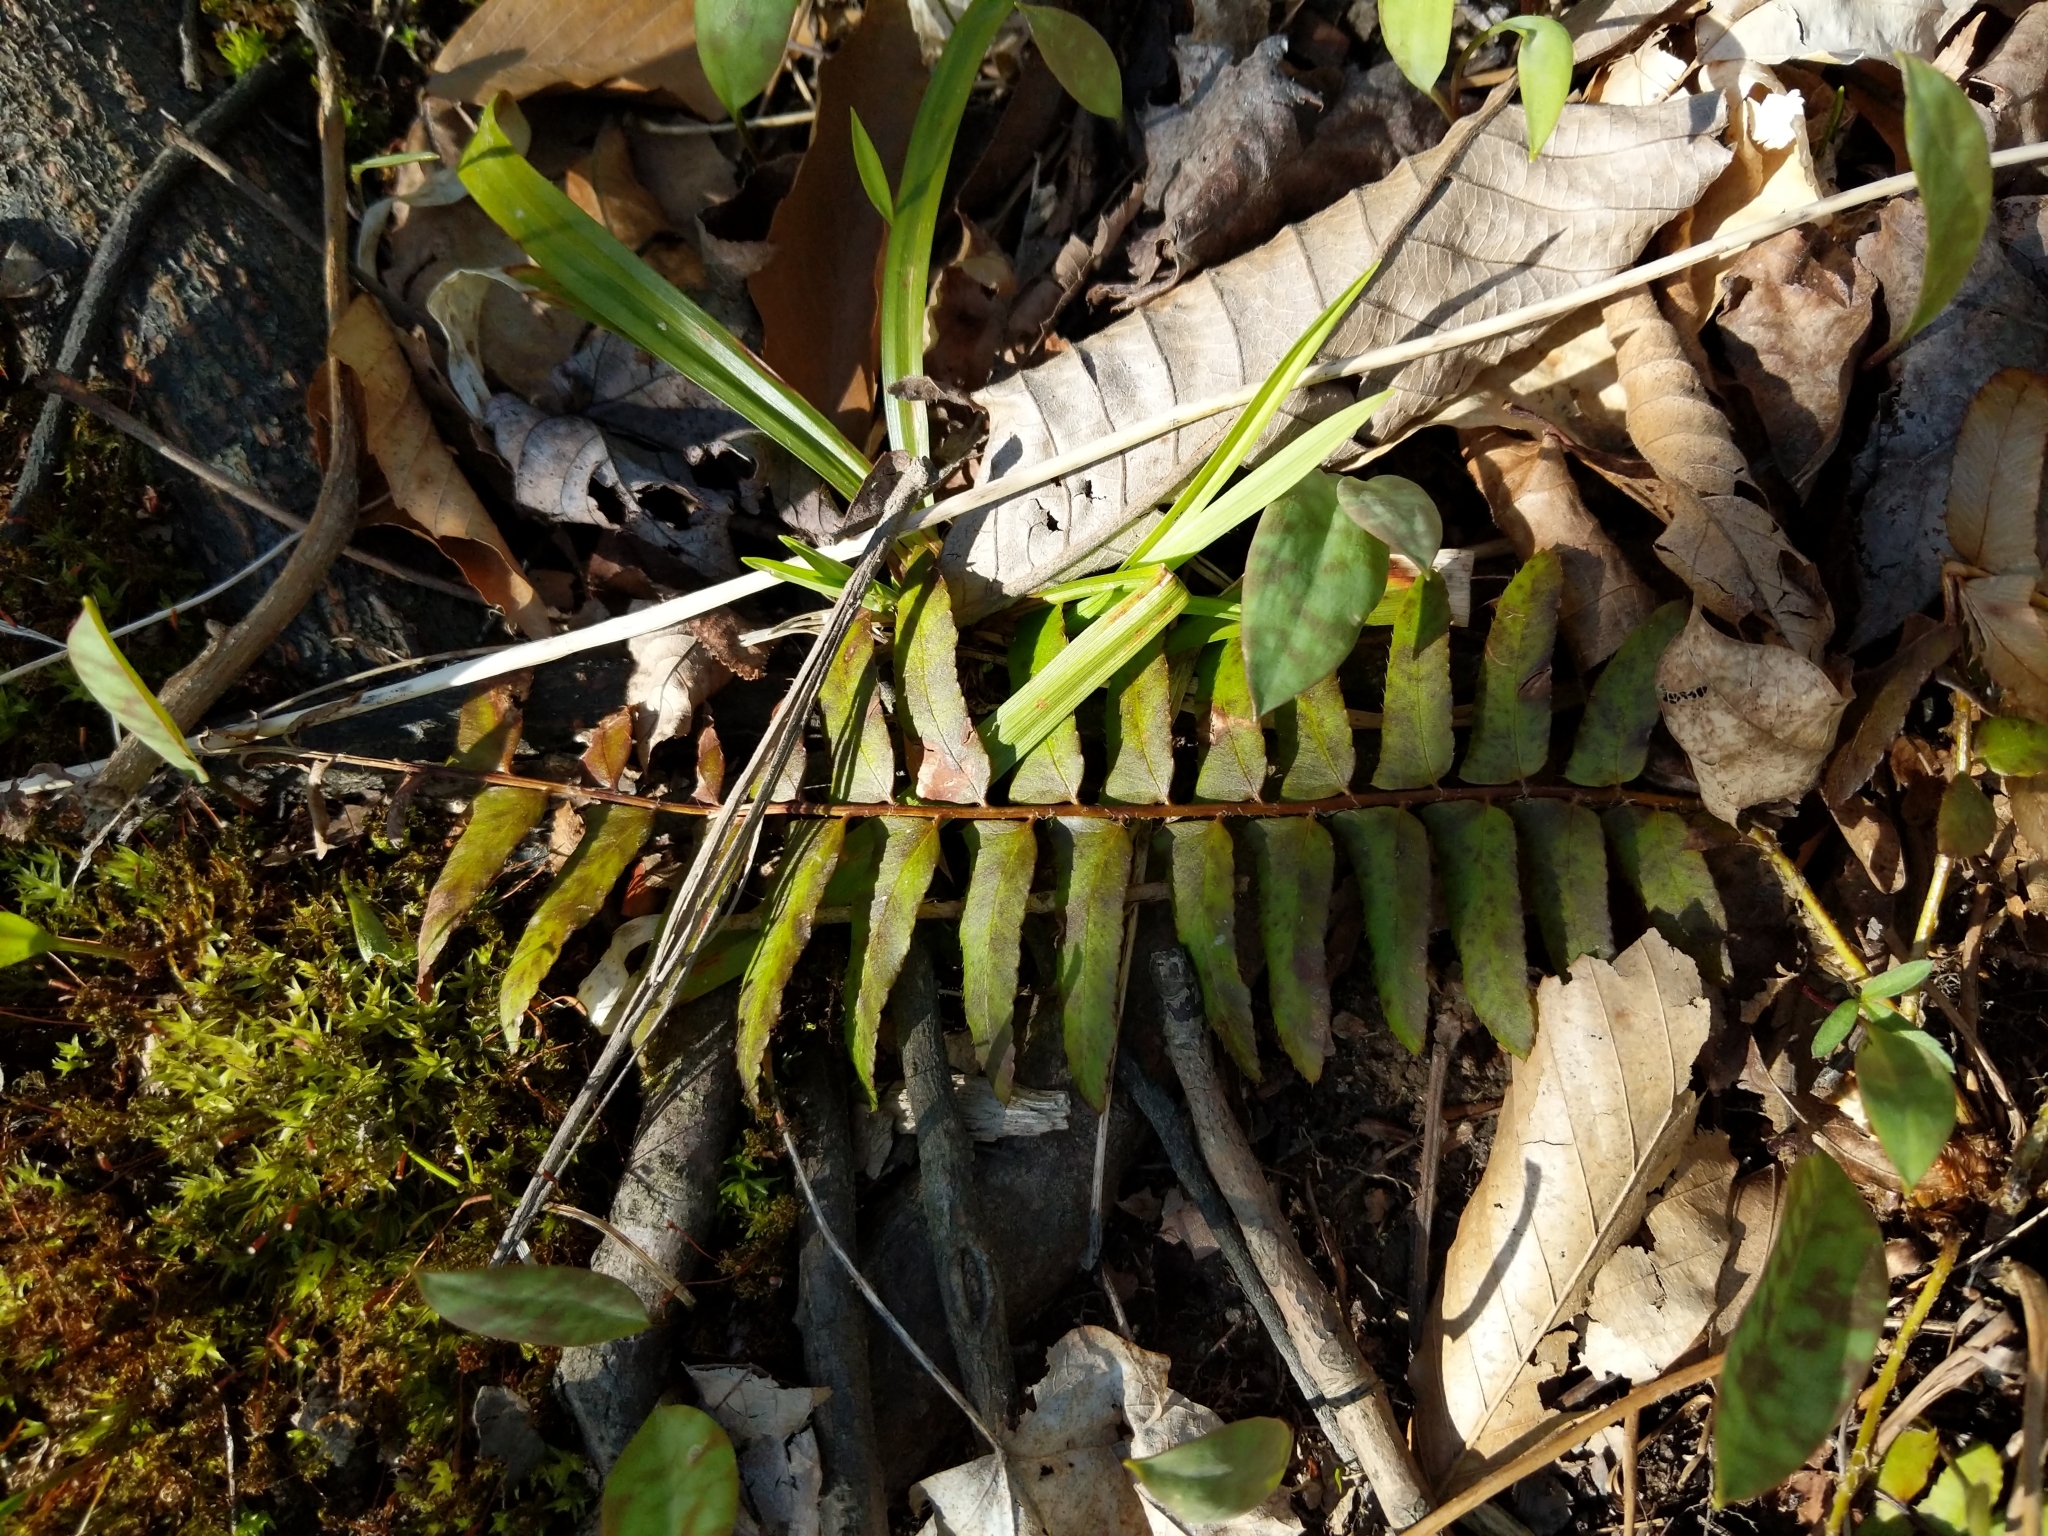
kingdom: Plantae
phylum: Tracheophyta
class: Polypodiopsida
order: Polypodiales
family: Dryopteridaceae
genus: Polystichum
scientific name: Polystichum acrostichoides
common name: Christmas fern
